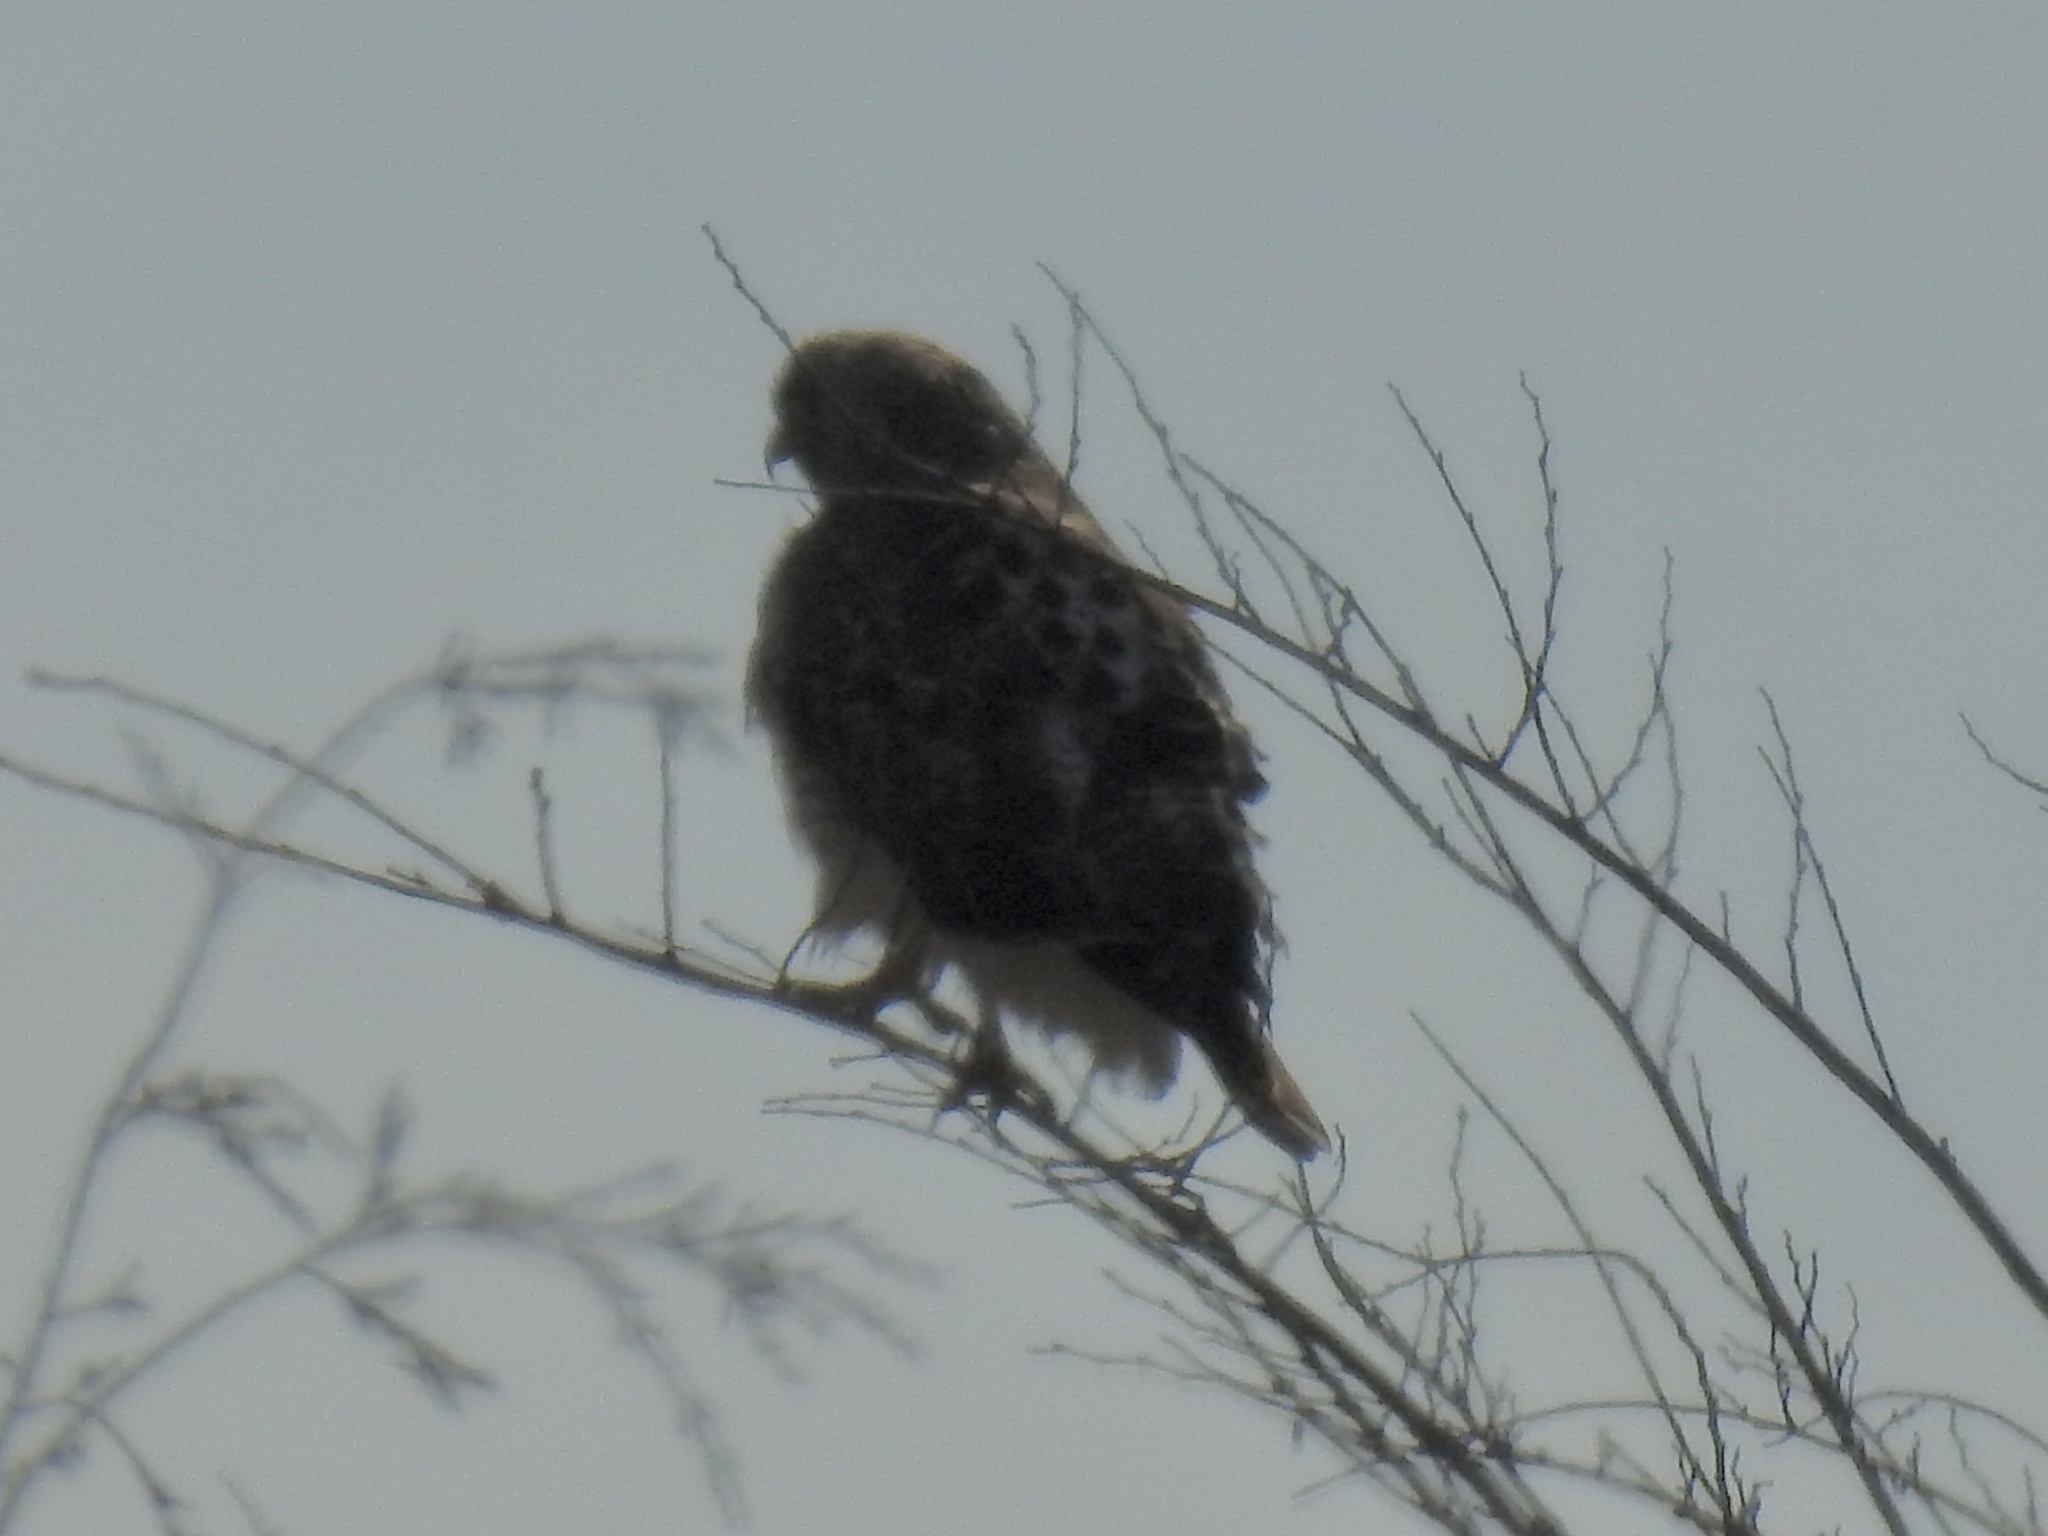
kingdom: Animalia
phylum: Chordata
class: Aves
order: Accipitriformes
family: Accipitridae
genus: Buteo
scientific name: Buteo jamaicensis
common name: Red-tailed hawk
